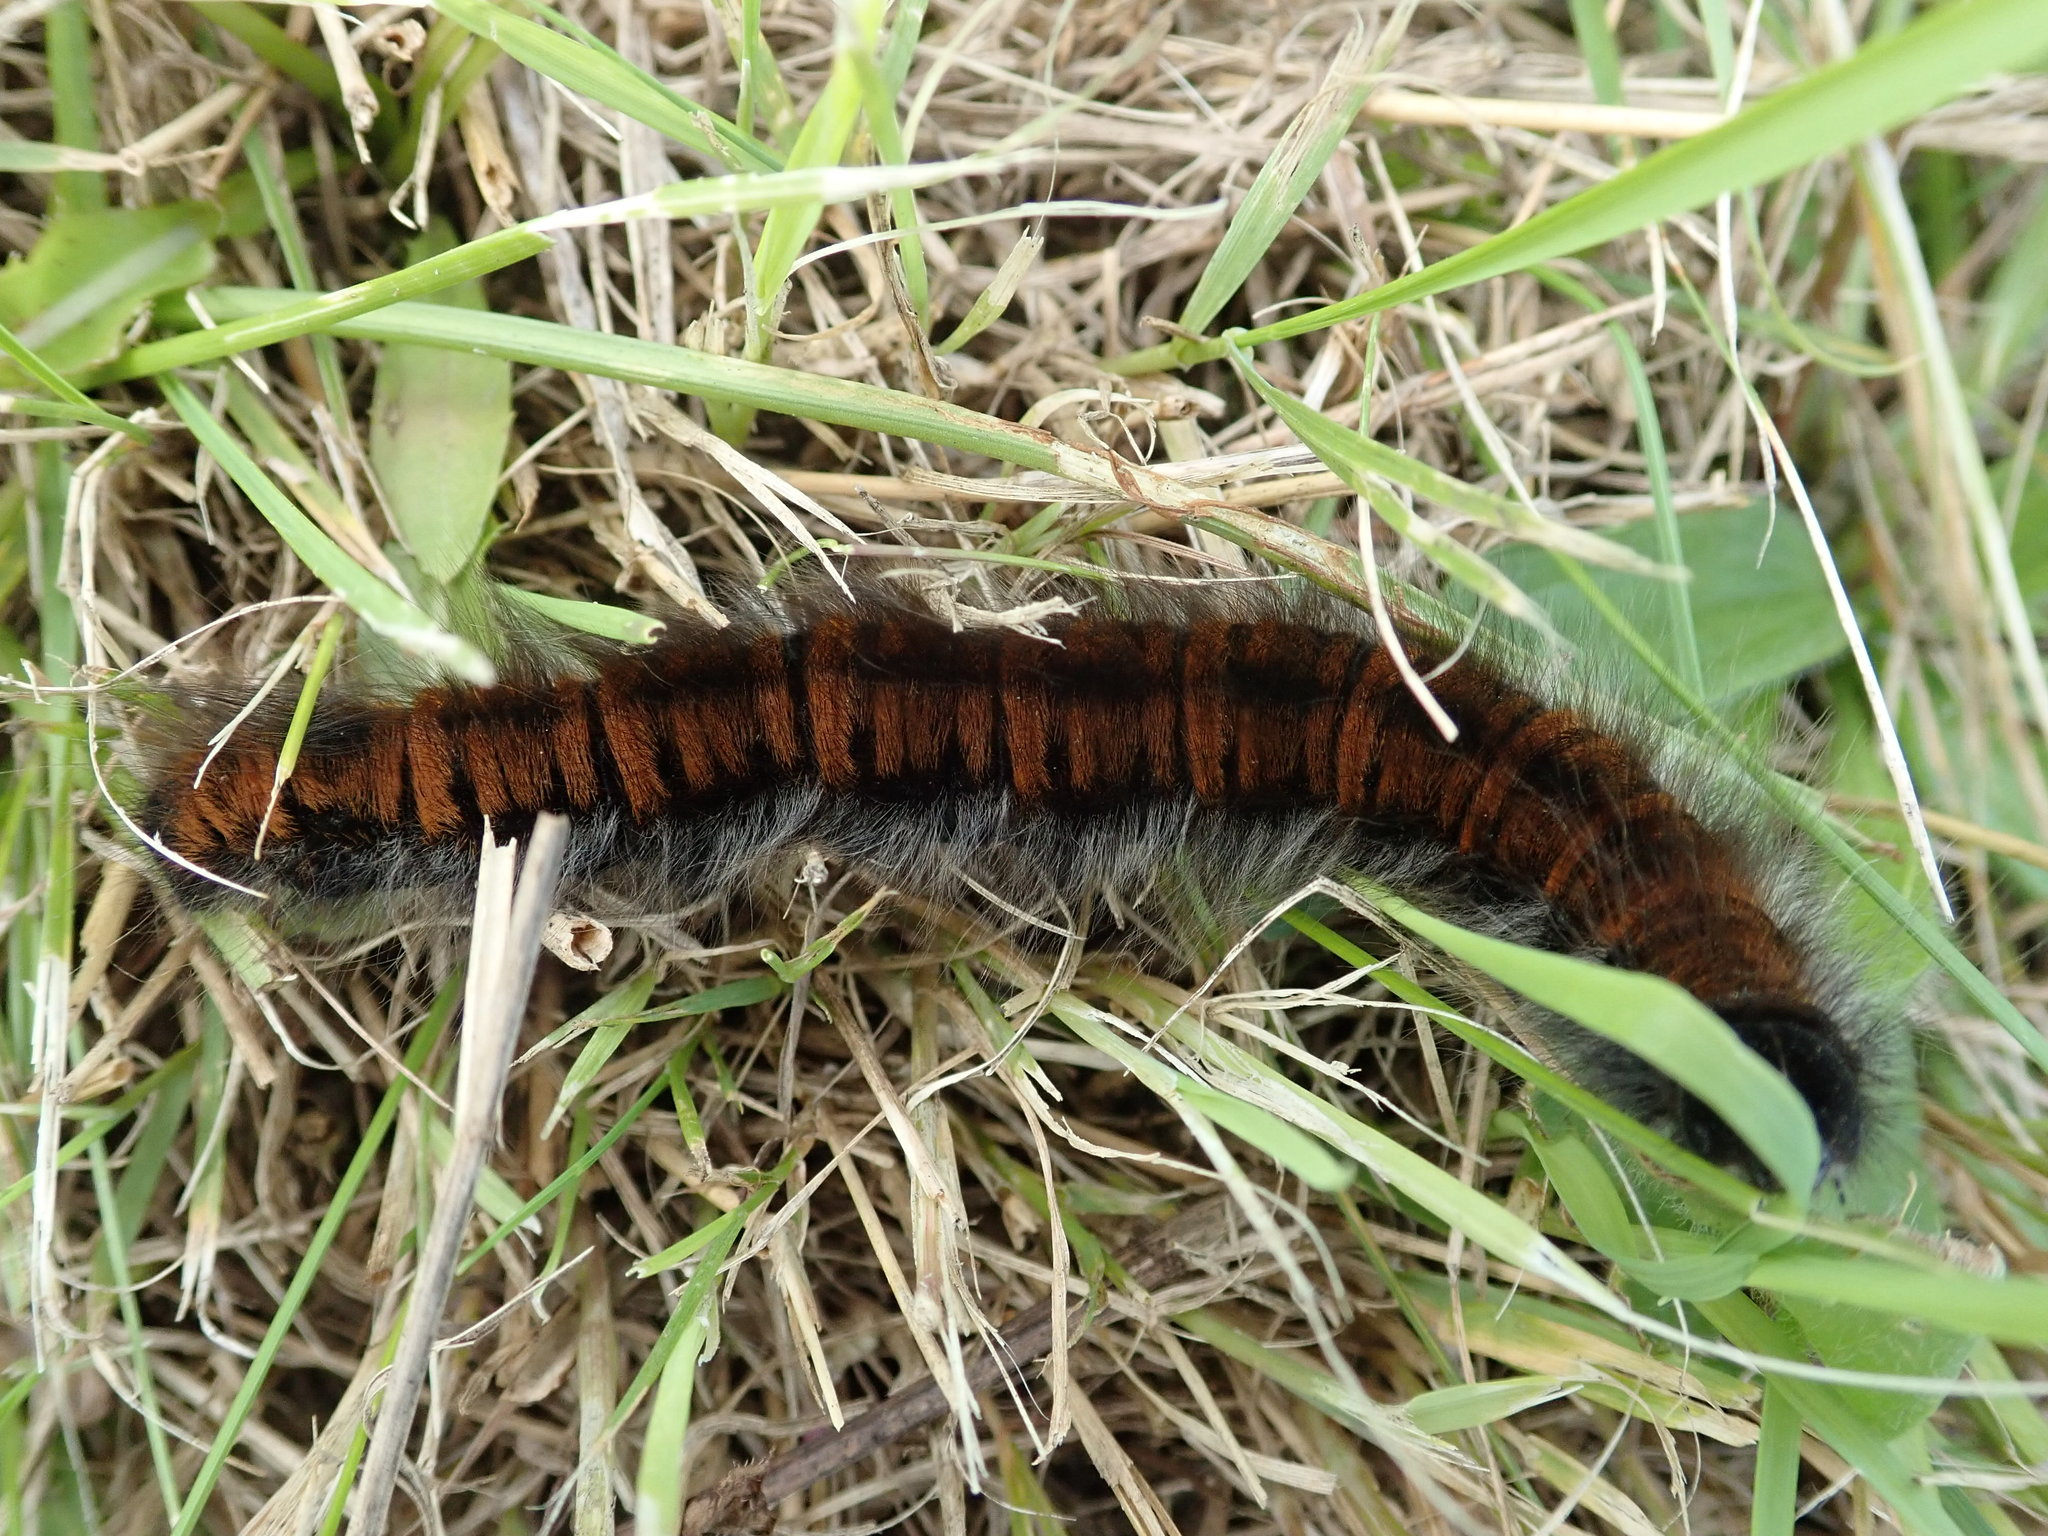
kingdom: Animalia
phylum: Arthropoda
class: Insecta
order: Lepidoptera
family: Lasiocampidae
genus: Macrothylacia
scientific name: Macrothylacia rubi
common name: Fox moth
